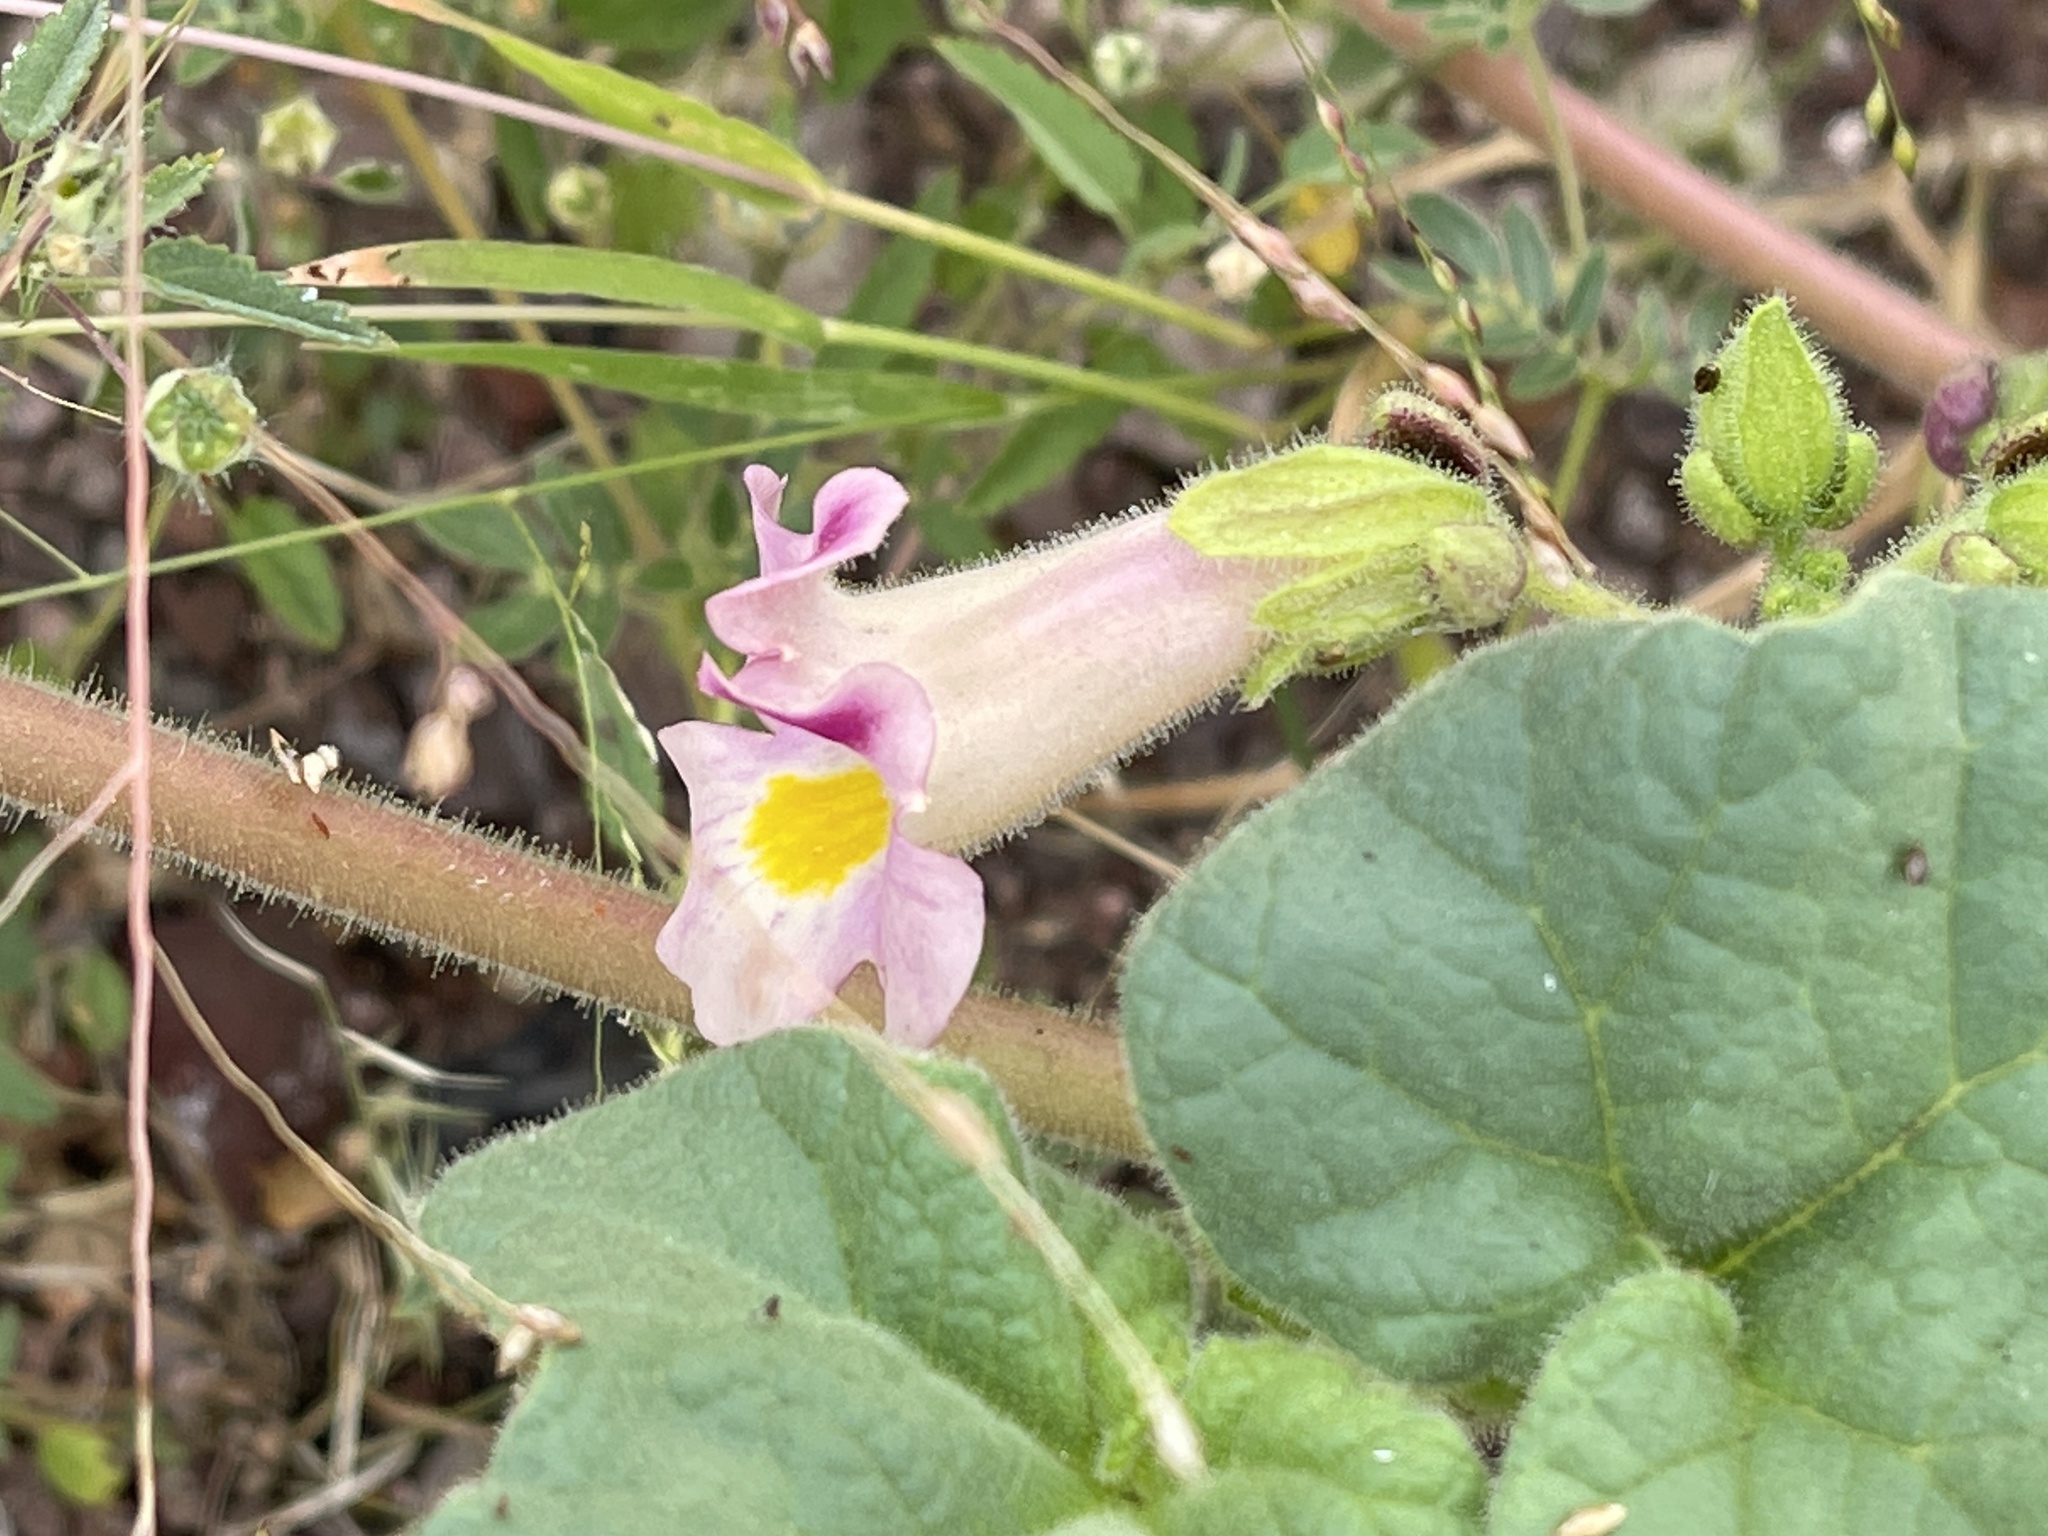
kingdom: Plantae
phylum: Tracheophyta
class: Magnoliopsida
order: Lamiales
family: Martyniaceae
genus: Proboscidea
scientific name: Proboscidea parviflora
